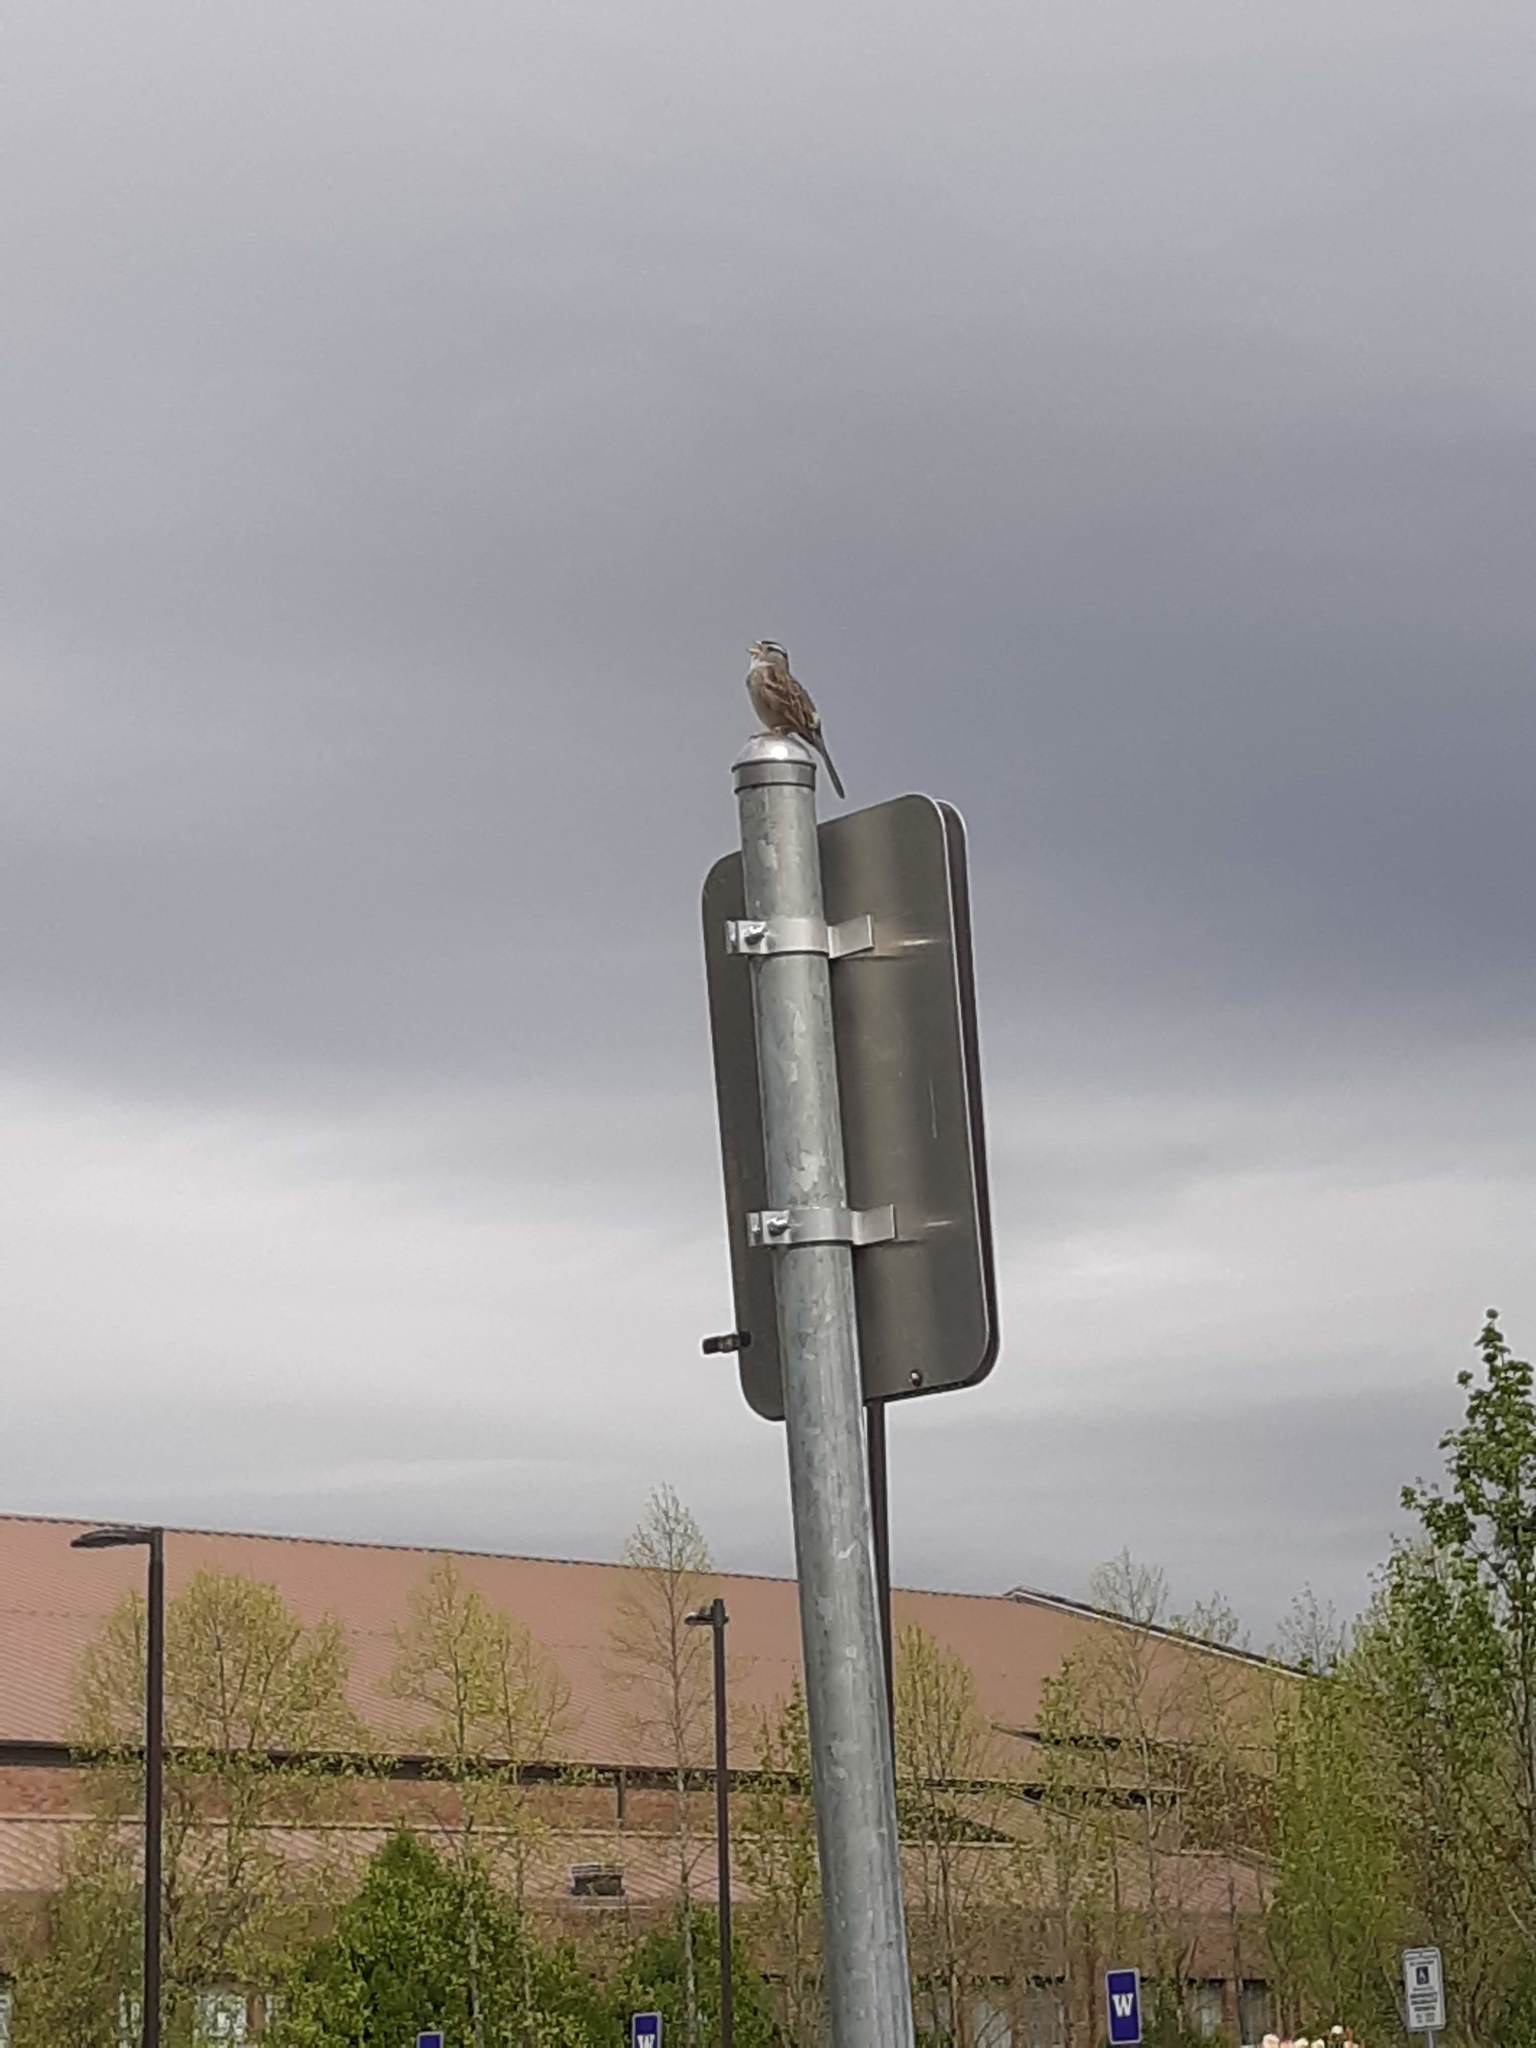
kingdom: Animalia
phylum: Chordata
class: Aves
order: Passeriformes
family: Passerellidae
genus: Zonotrichia
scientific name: Zonotrichia leucophrys
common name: White-crowned sparrow
